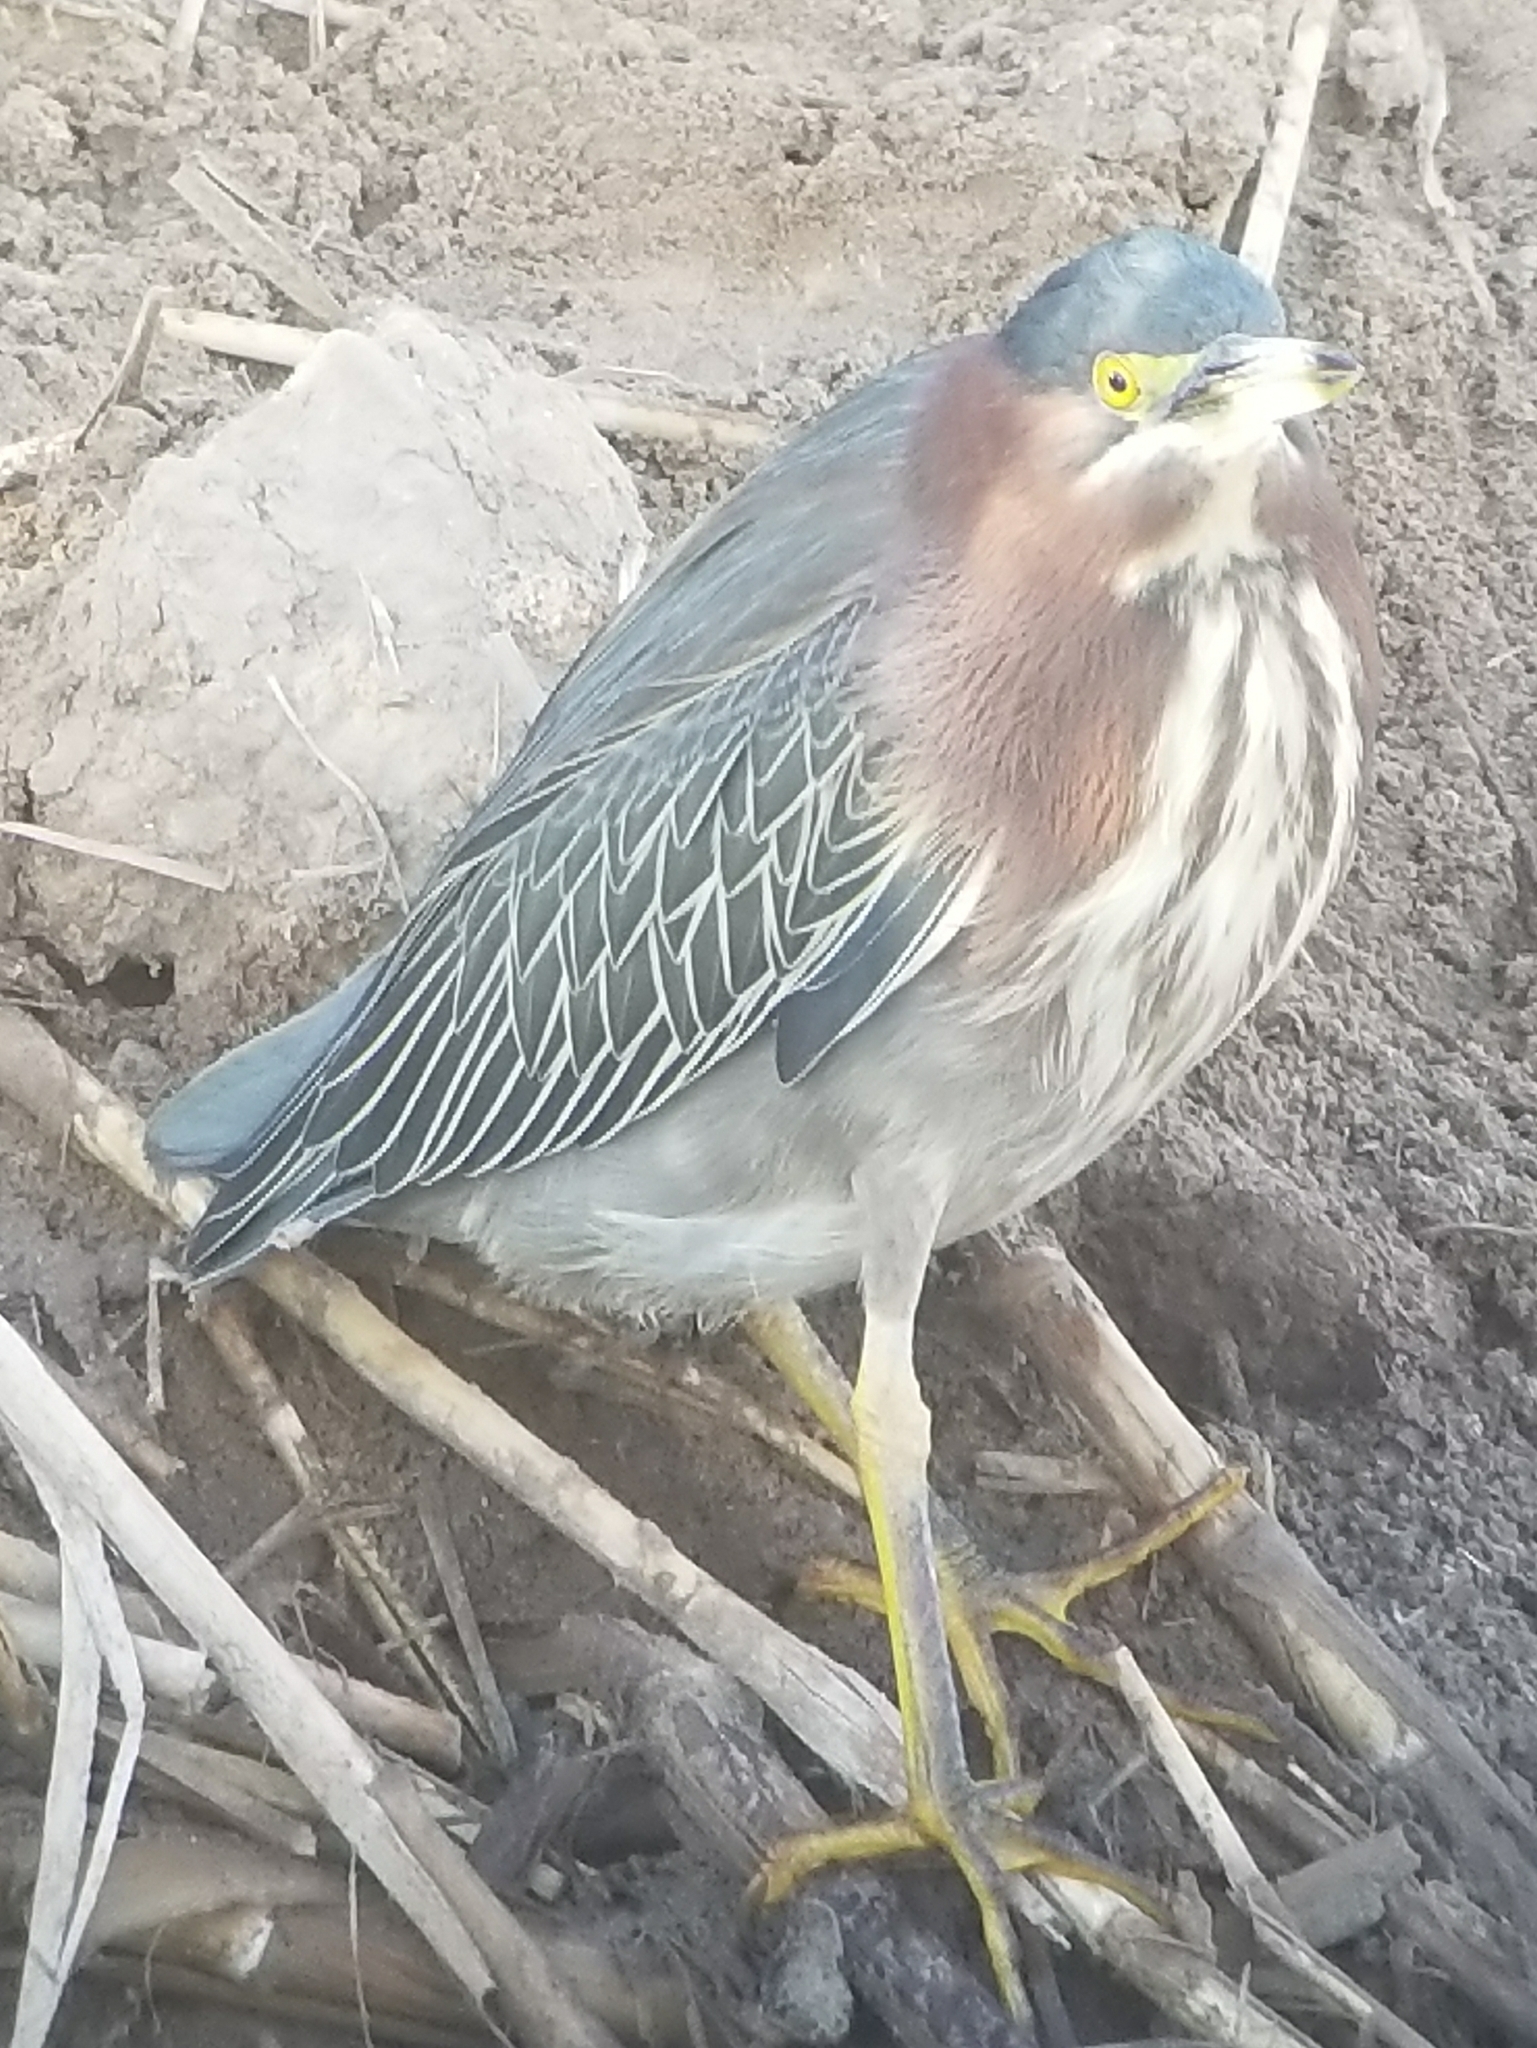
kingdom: Animalia
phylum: Chordata
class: Aves
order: Pelecaniformes
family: Ardeidae
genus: Butorides
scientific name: Butorides virescens
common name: Green heron
